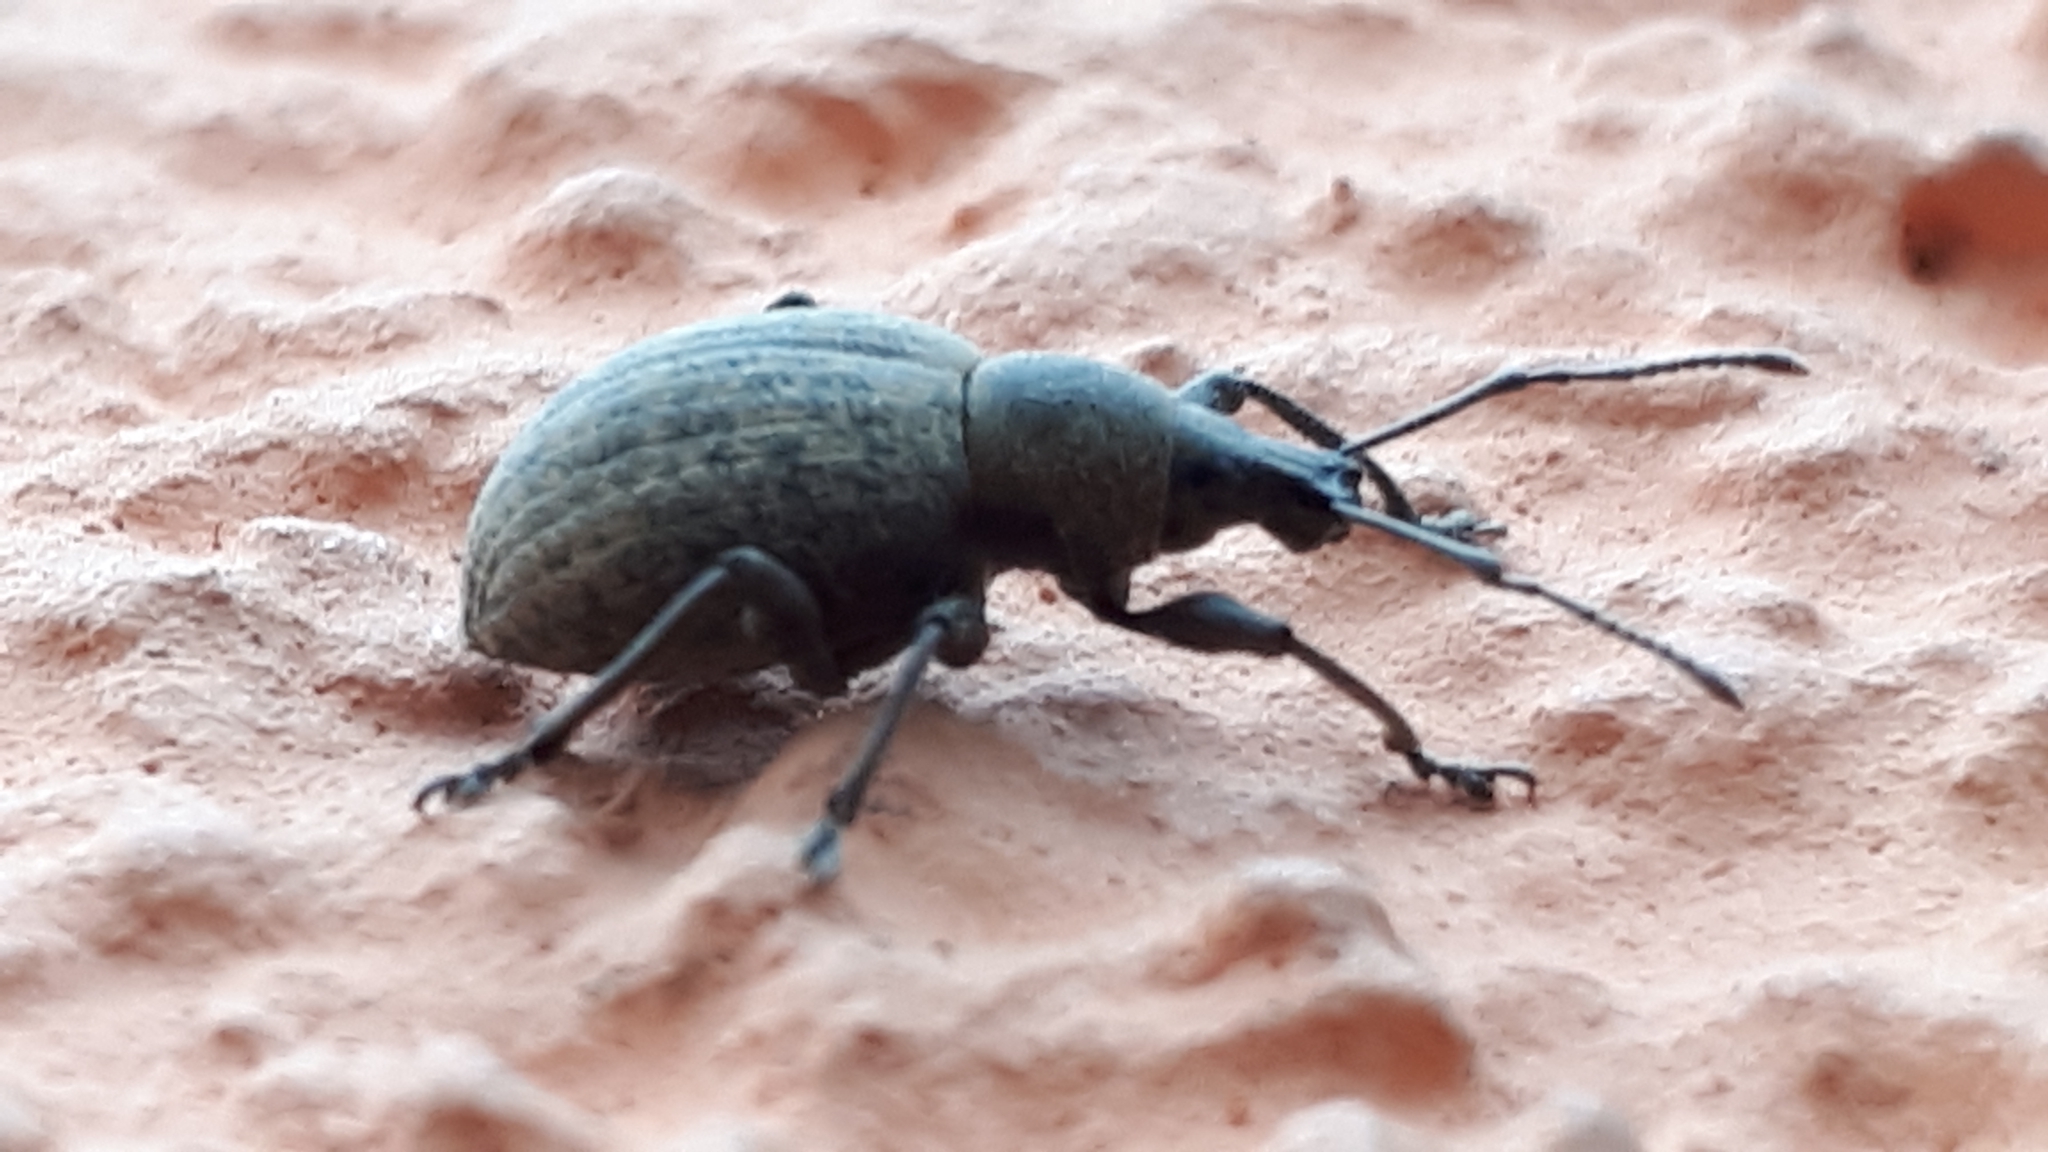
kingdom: Animalia
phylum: Arthropoda
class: Insecta
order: Coleoptera
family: Curculionidae
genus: Otiorhynchus
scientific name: Otiorhynchus armadillo
